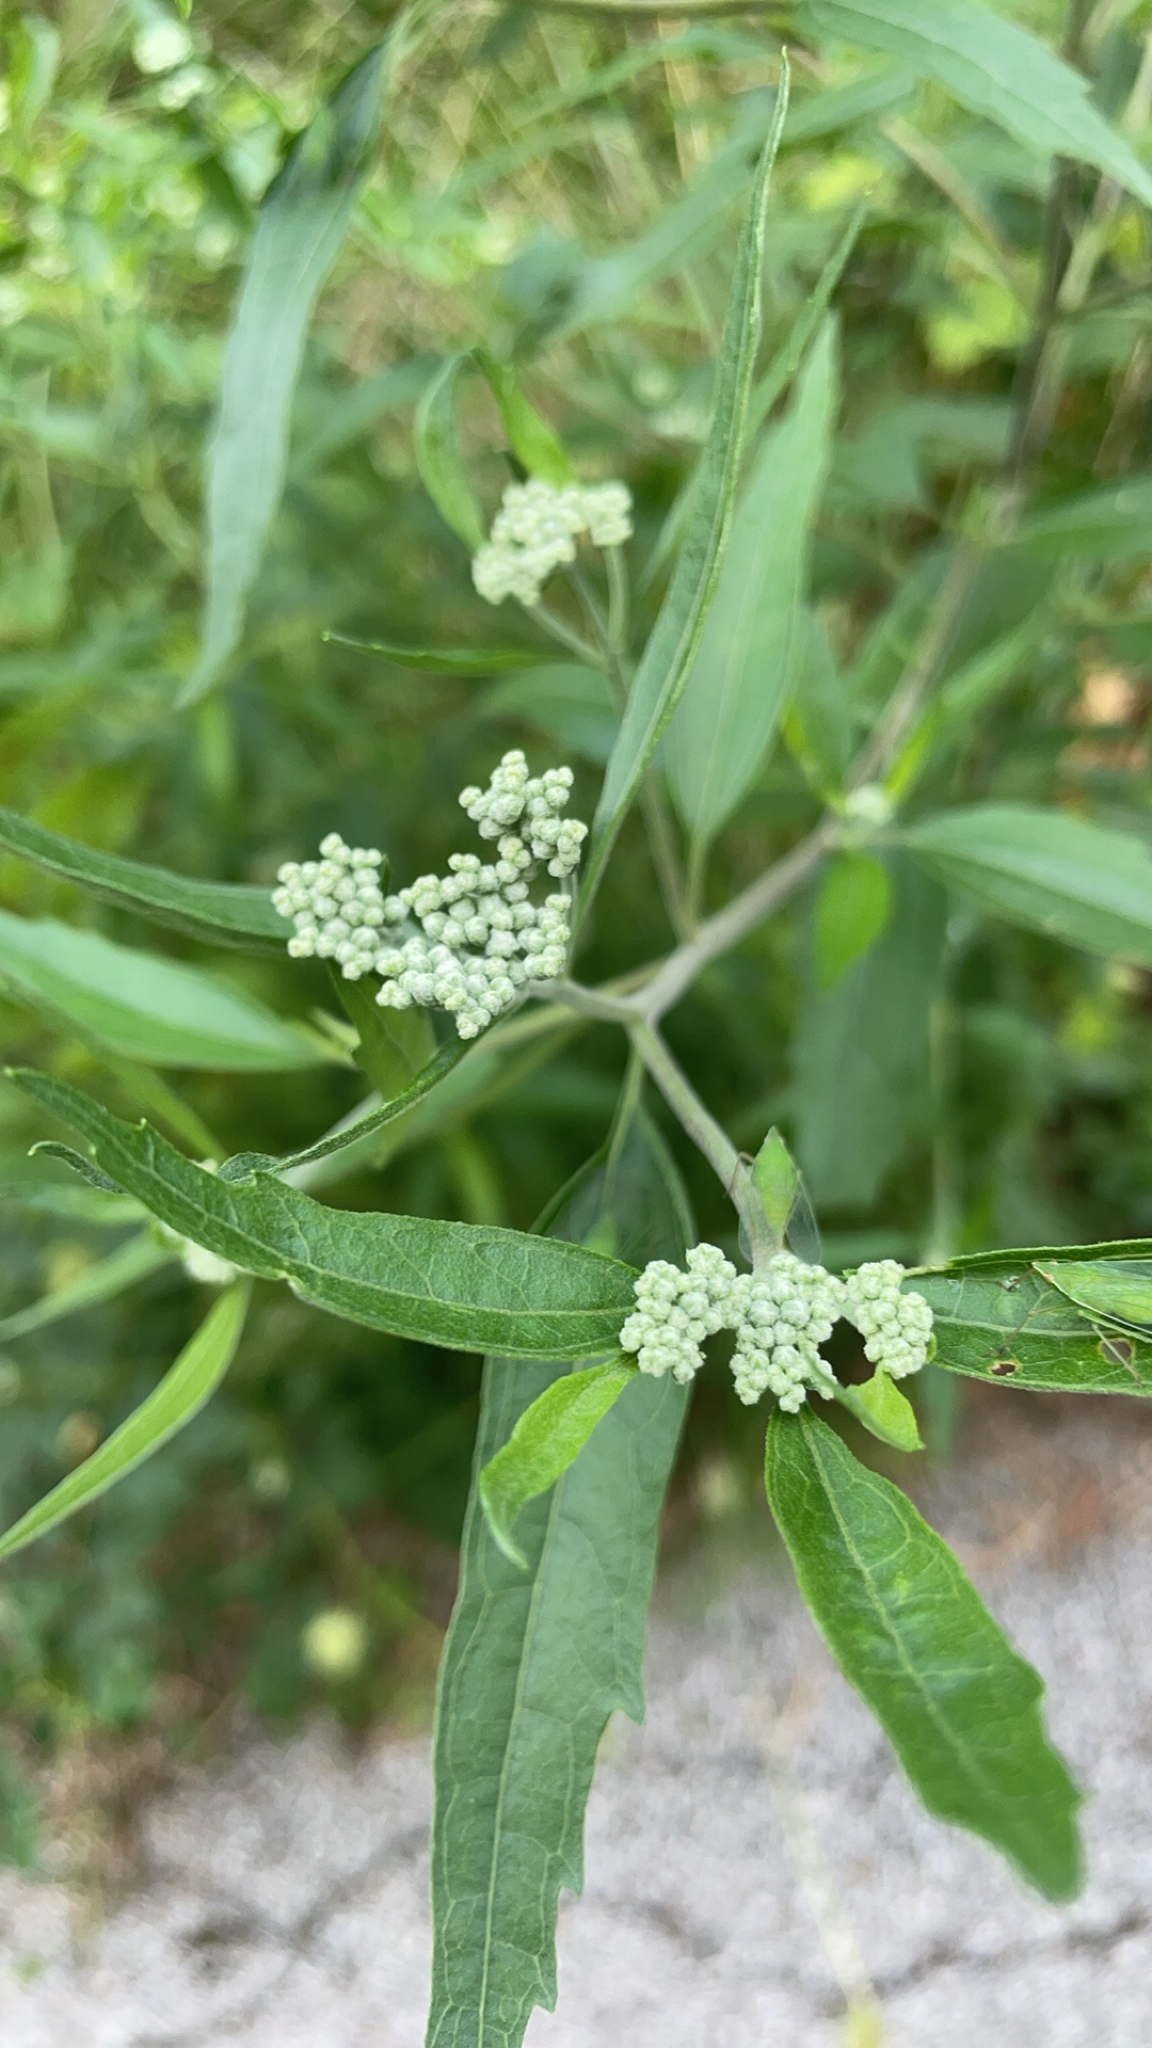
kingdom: Plantae
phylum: Tracheophyta
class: Magnoliopsida
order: Asterales
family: Asteraceae
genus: Eupatorium
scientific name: Eupatorium serotinum
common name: Late boneset
